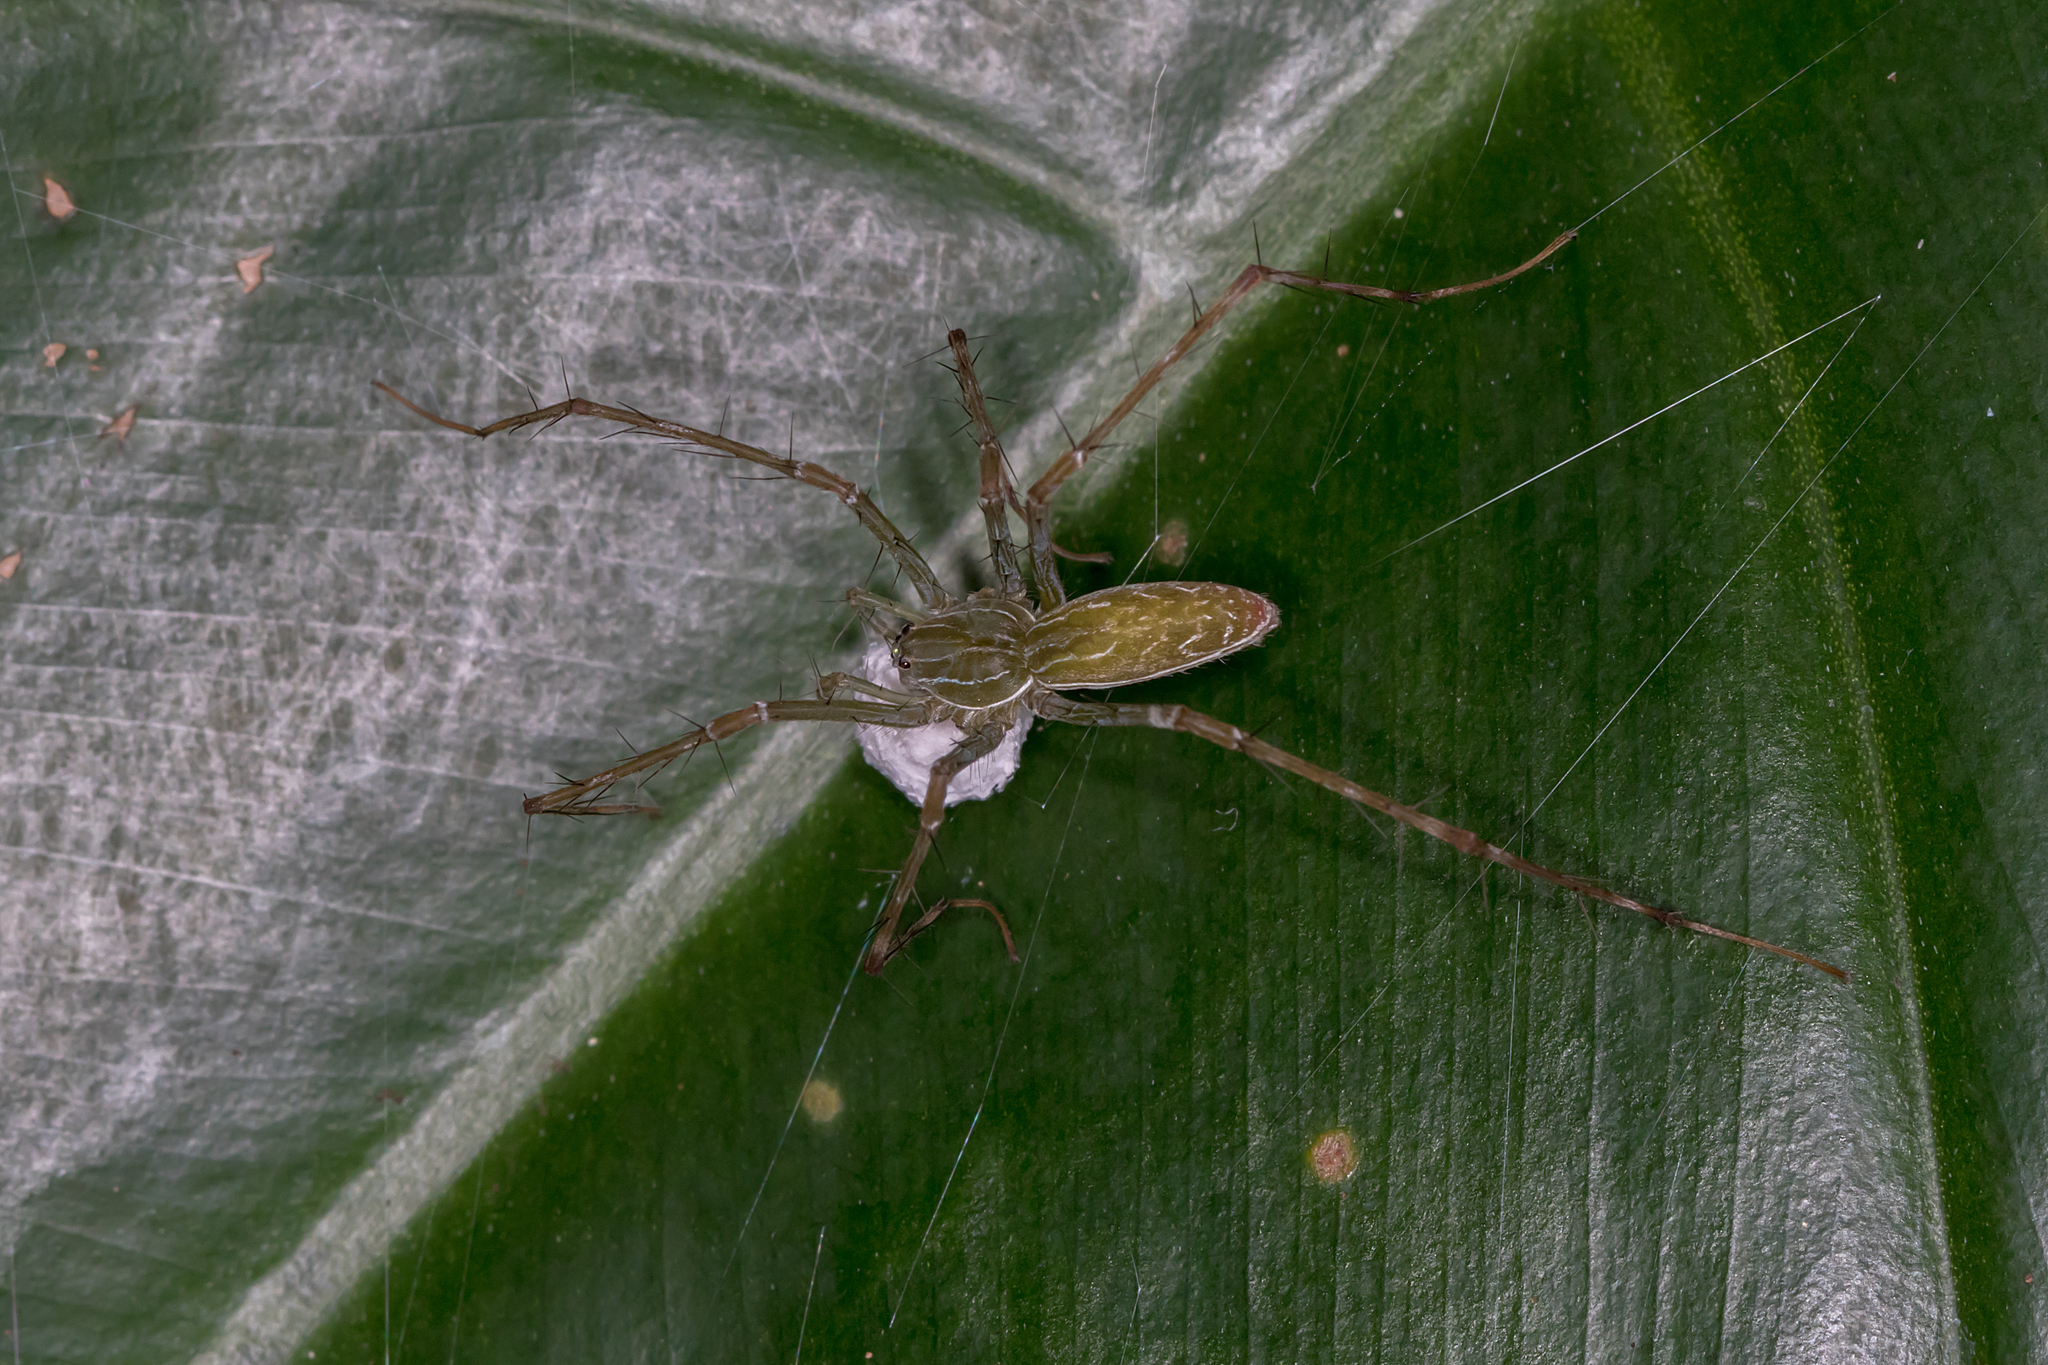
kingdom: Animalia
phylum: Arthropoda
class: Arachnida
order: Araneae
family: Pisauridae
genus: Hygropoda
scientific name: Hygropoda lineata
